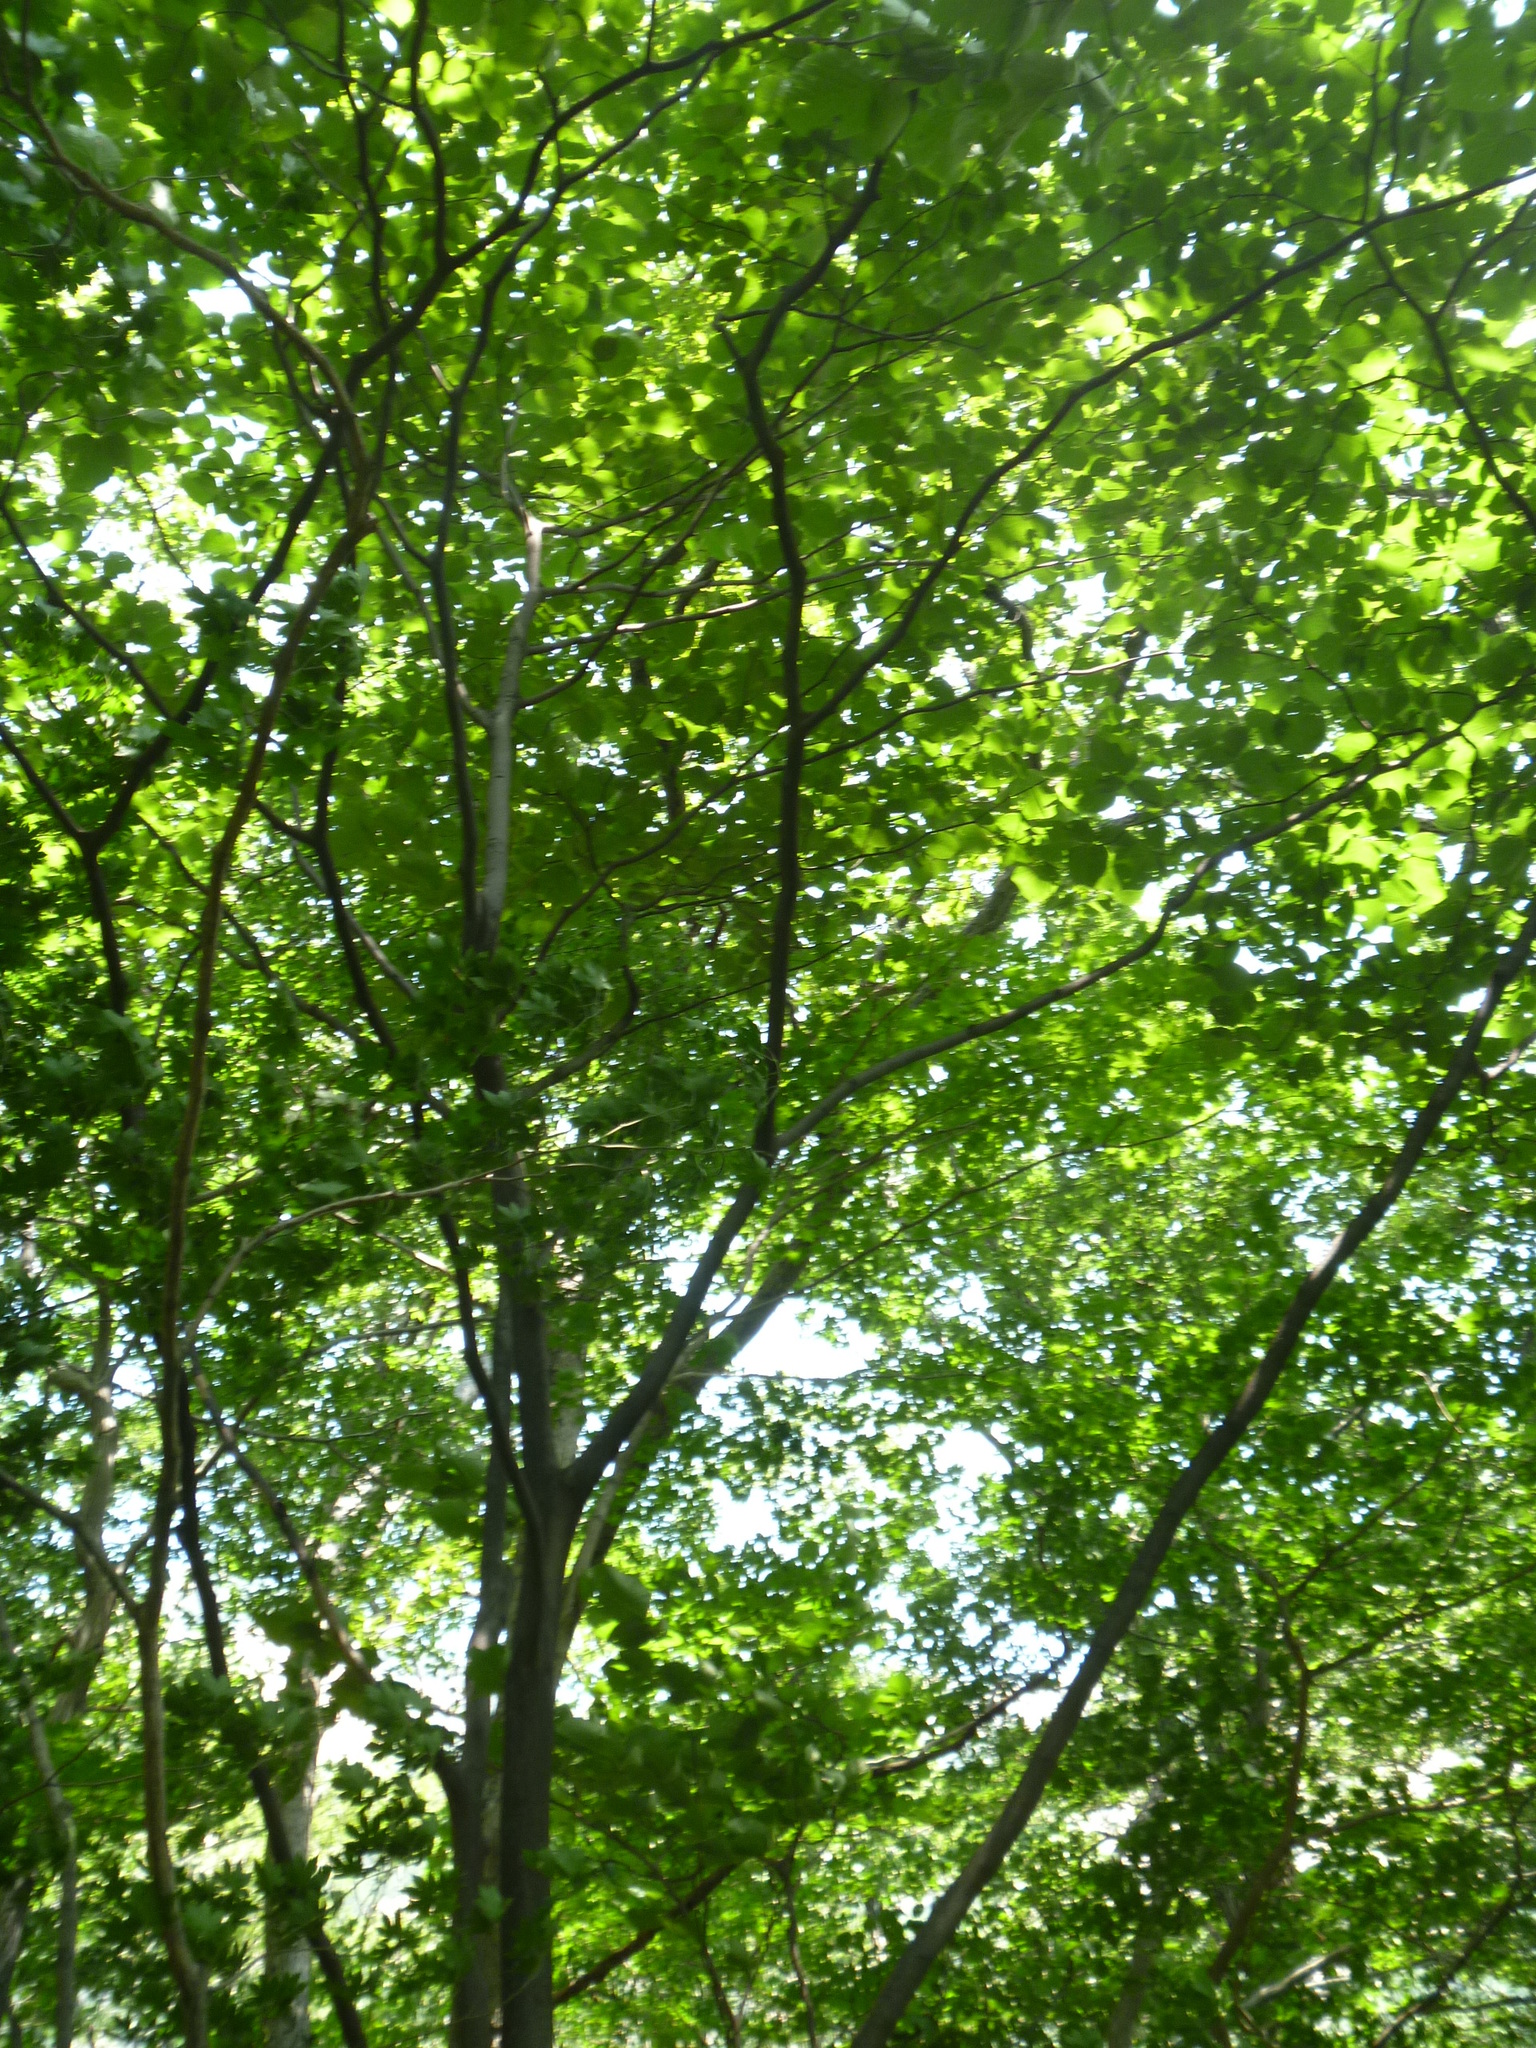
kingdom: Plantae
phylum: Tracheophyta
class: Magnoliopsida
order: Ericales
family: Styracaceae
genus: Styrax
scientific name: Styrax obassia
